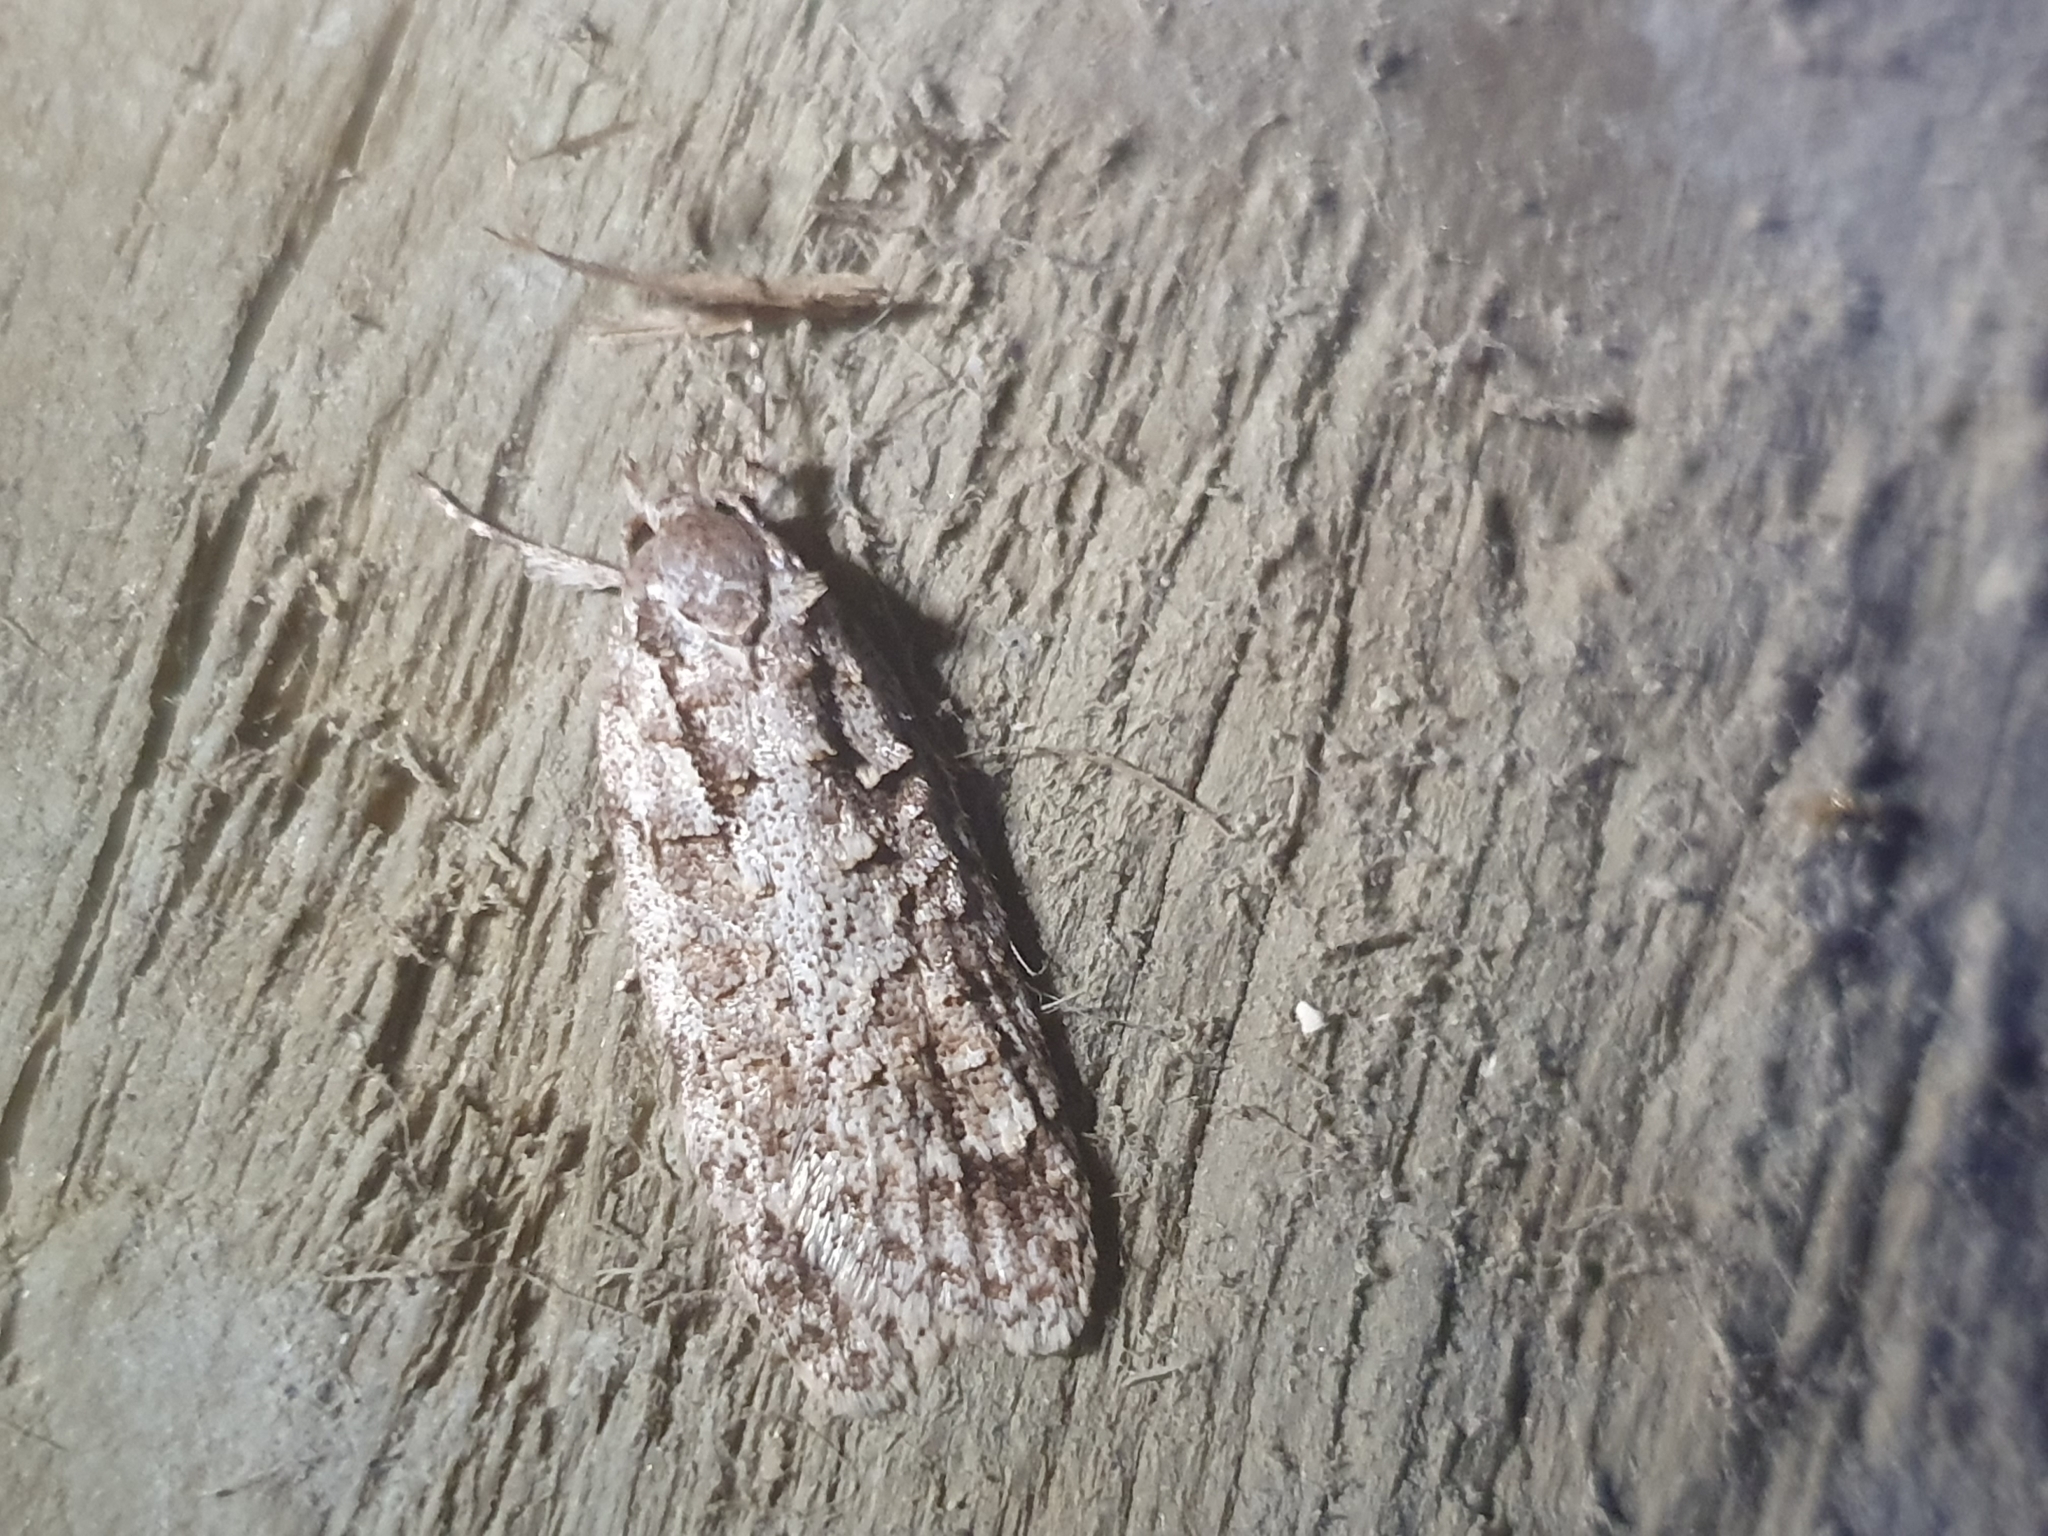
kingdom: Animalia
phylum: Arthropoda
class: Insecta
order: Lepidoptera
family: Oecophoridae
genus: Izatha
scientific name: Izatha attactella
